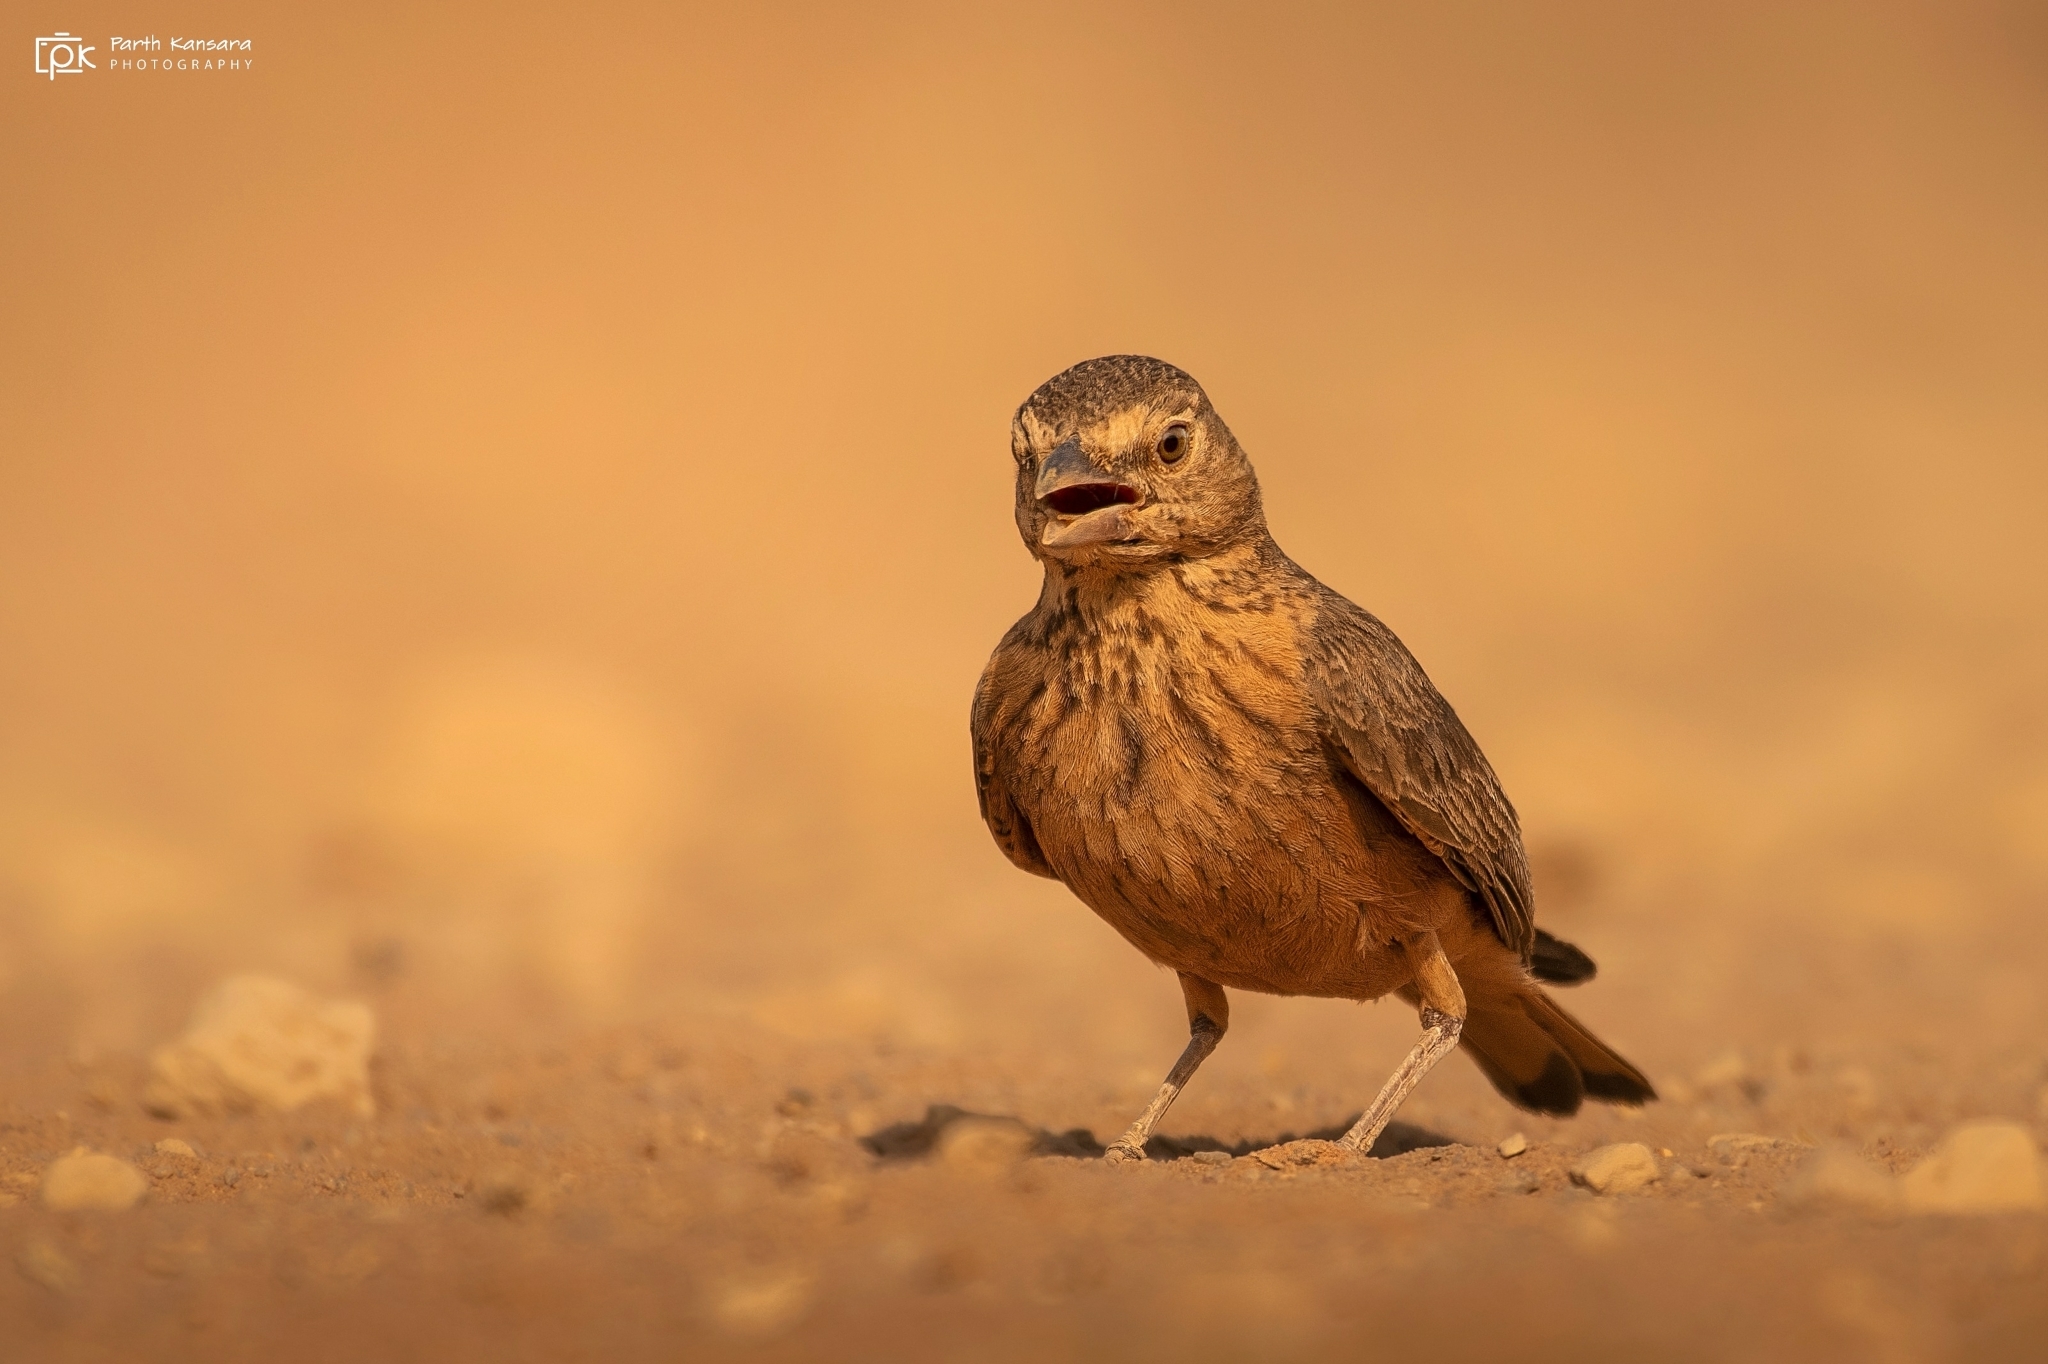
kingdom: Animalia
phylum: Chordata
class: Aves
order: Passeriformes
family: Alaudidae
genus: Ammomanes
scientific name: Ammomanes phoenicura
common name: Rufous-tailed lark
